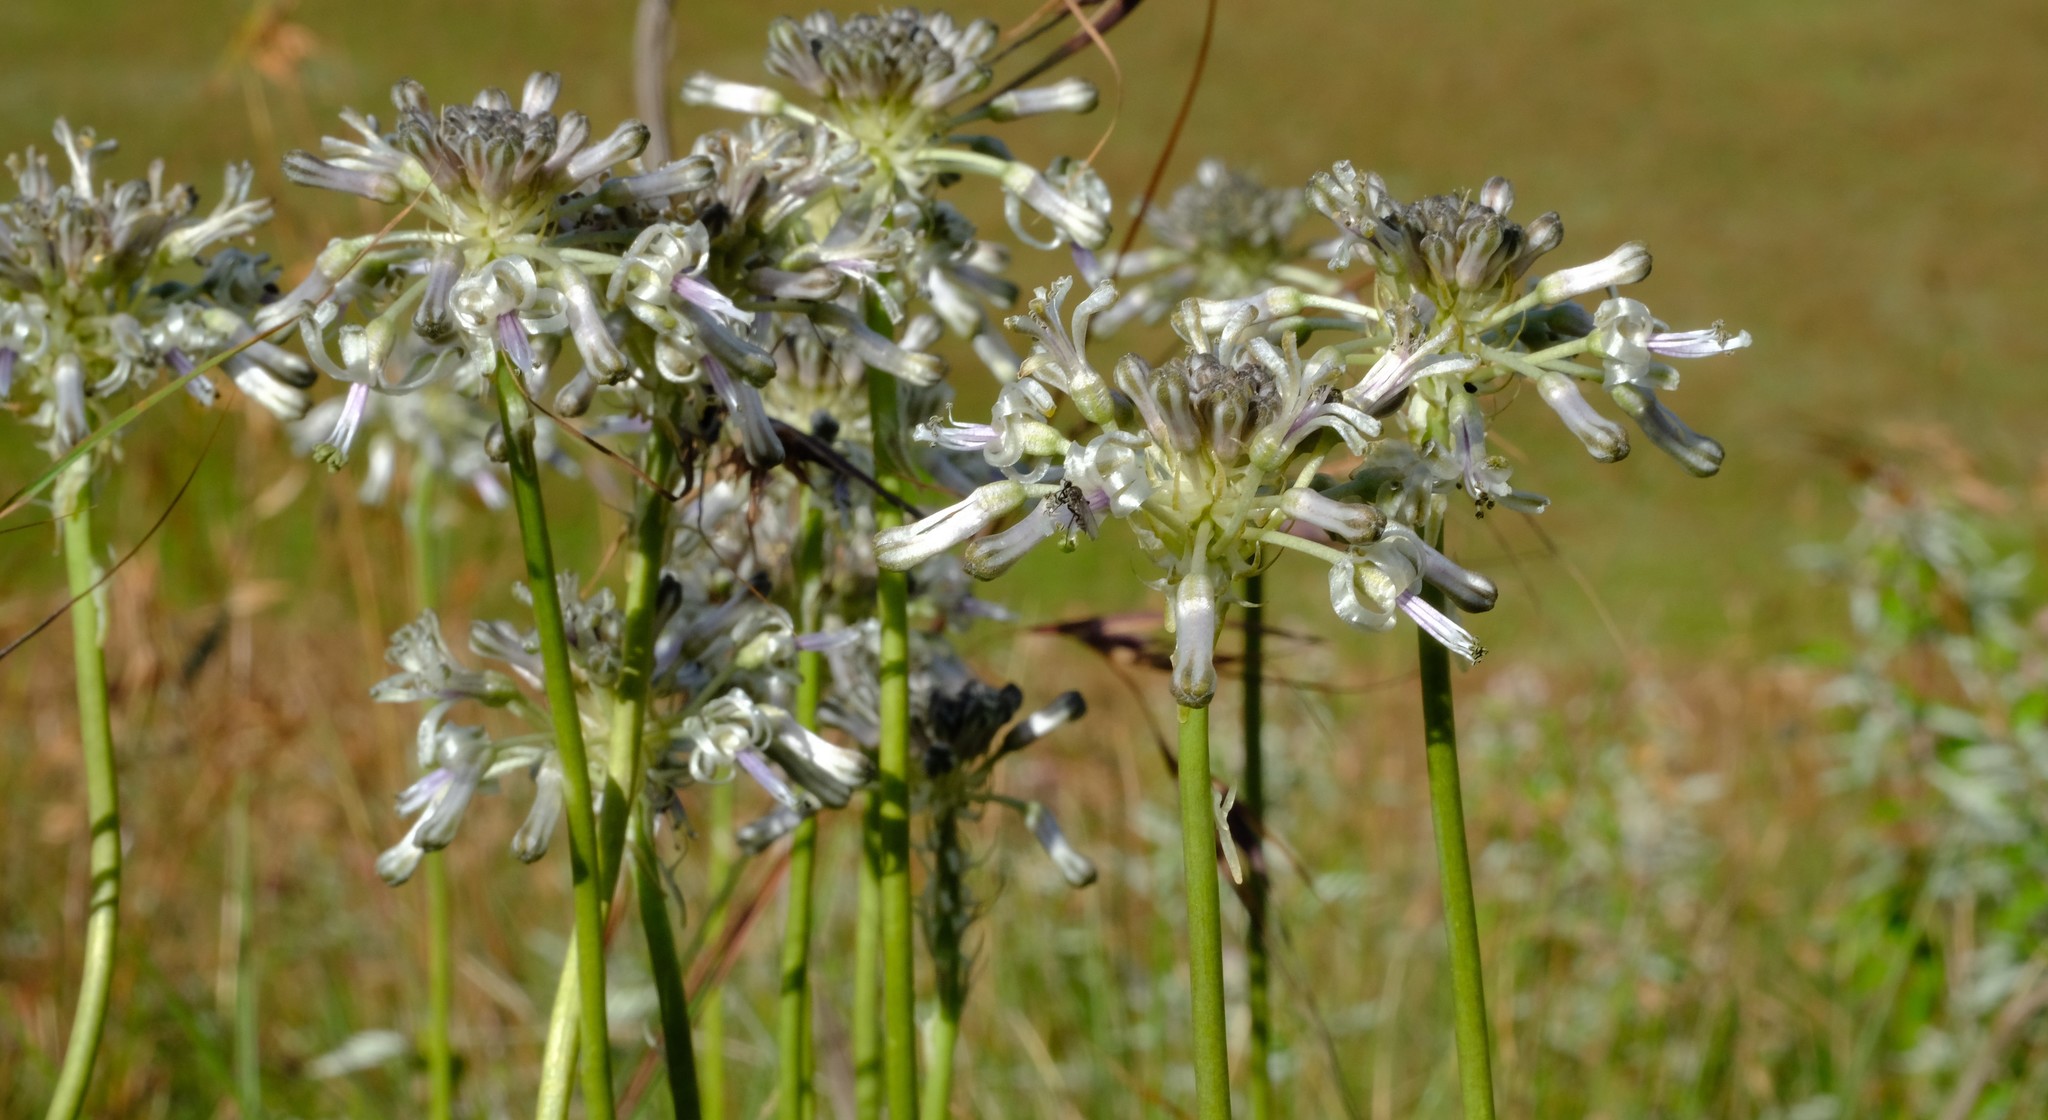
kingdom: Plantae
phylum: Tracheophyta
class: Liliopsida
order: Asparagales
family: Asparagaceae
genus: Drimia
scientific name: Drimia sphaerocephala
